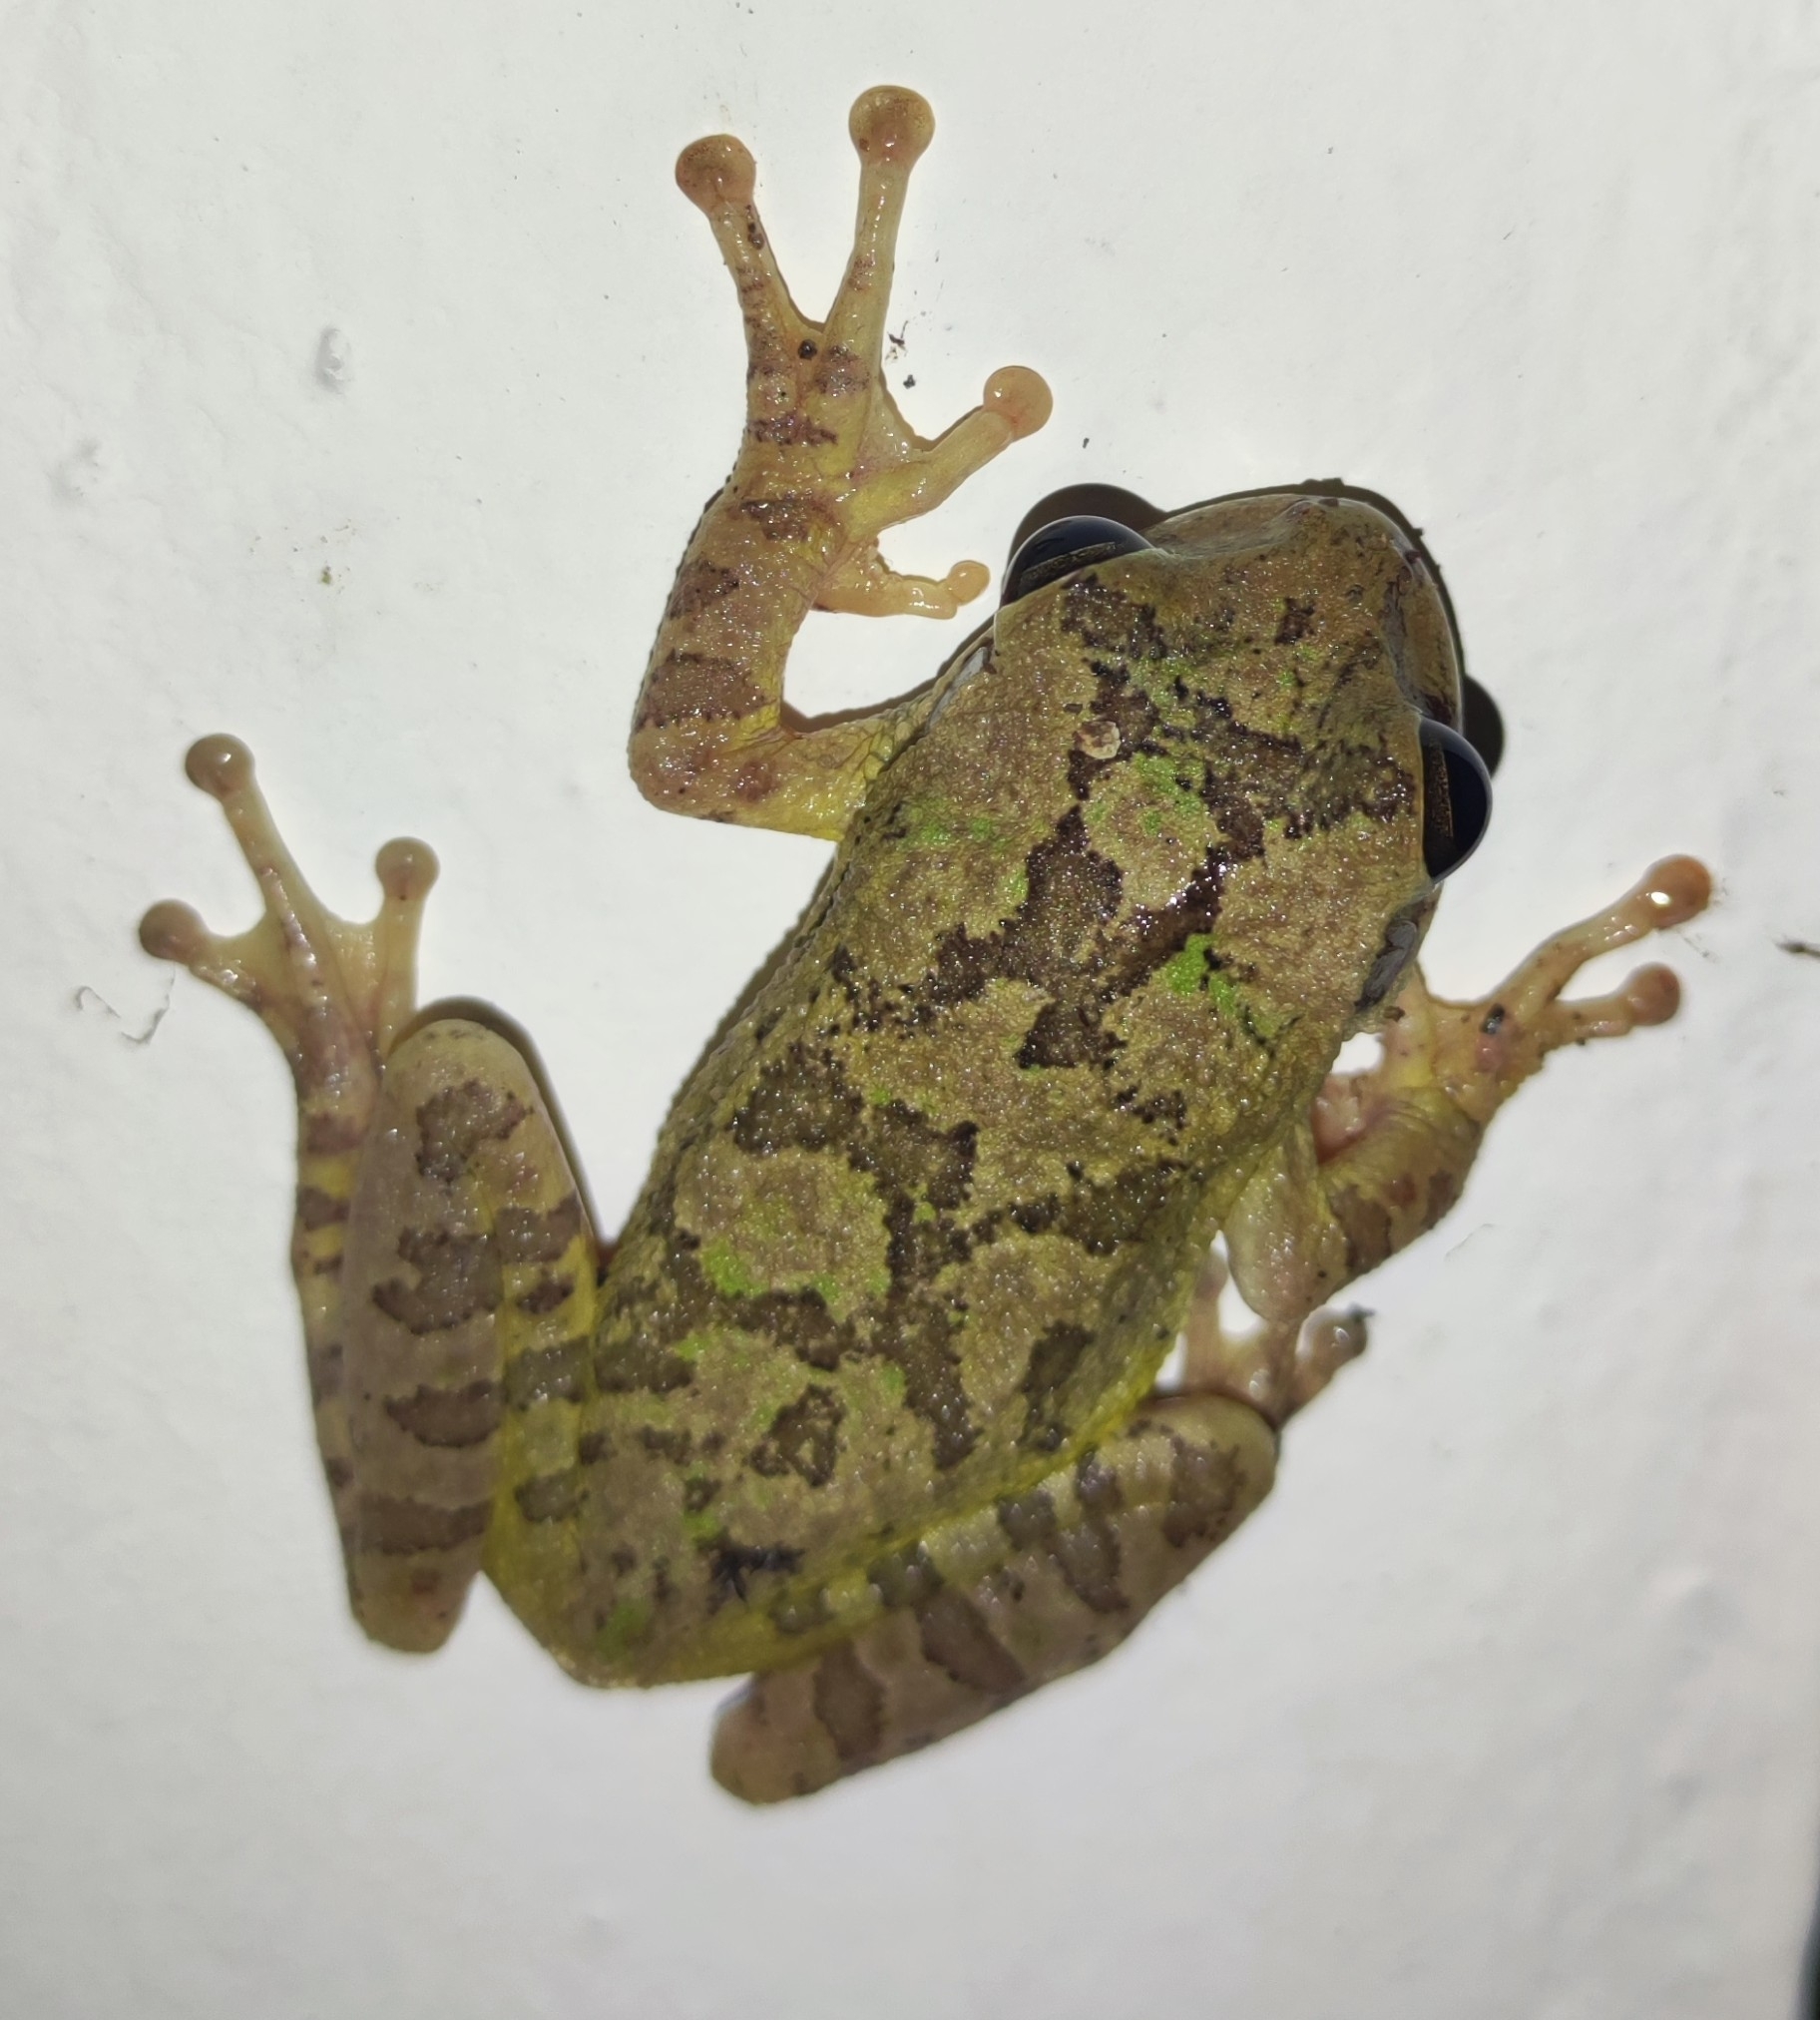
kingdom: Animalia
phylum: Chordata
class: Amphibia
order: Anura
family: Hylidae
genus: Smilisca
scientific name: Smilisca baudinii
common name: Mexican smilisca
